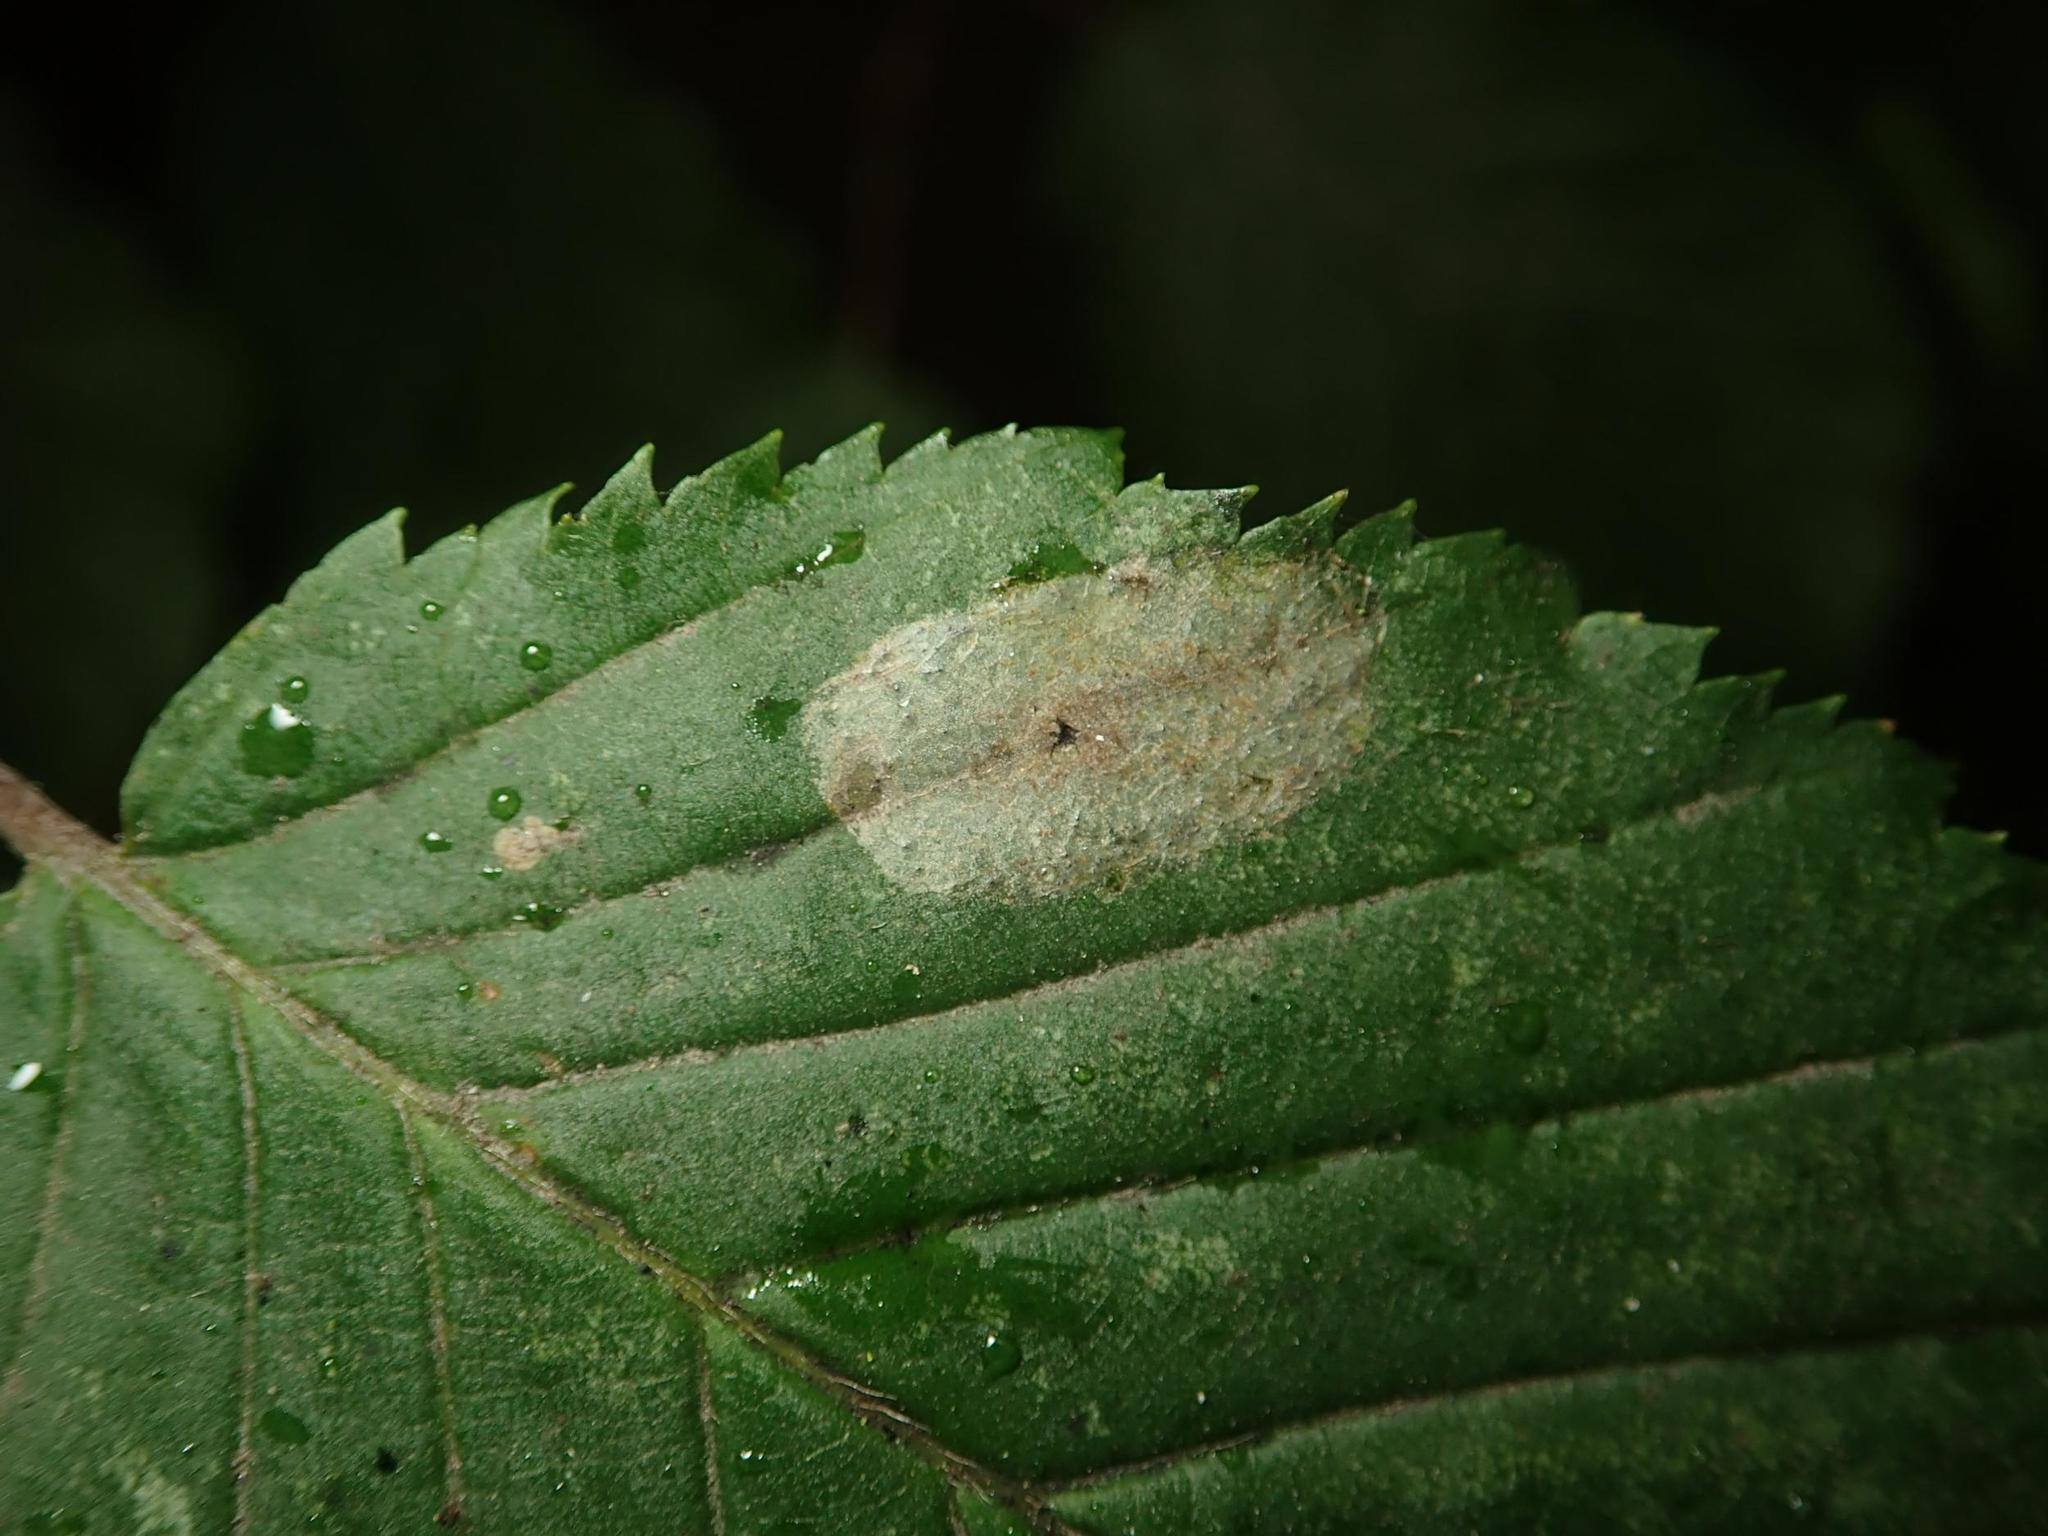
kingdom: Animalia
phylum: Arthropoda
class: Insecta
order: Lepidoptera
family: Gracillariidae
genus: Phyllonorycter
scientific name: Phyllonorycter esperella
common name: Dark hornbeam midget
